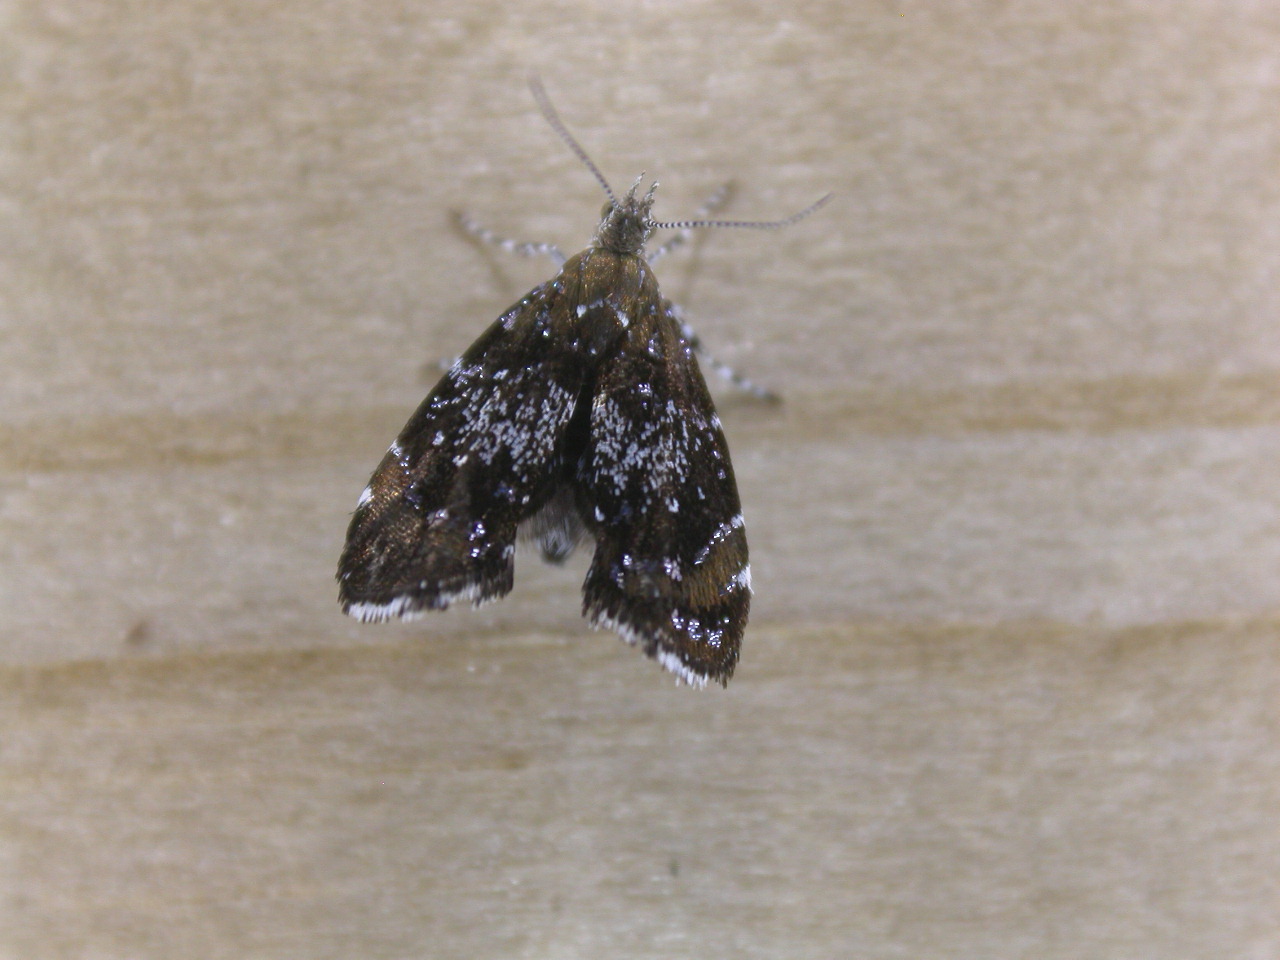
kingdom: Animalia
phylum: Arthropoda
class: Insecta
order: Lepidoptera
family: Choreutidae
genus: Prochoreutis
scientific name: Prochoreutis sehestediana
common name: Silver-dot twitcher
